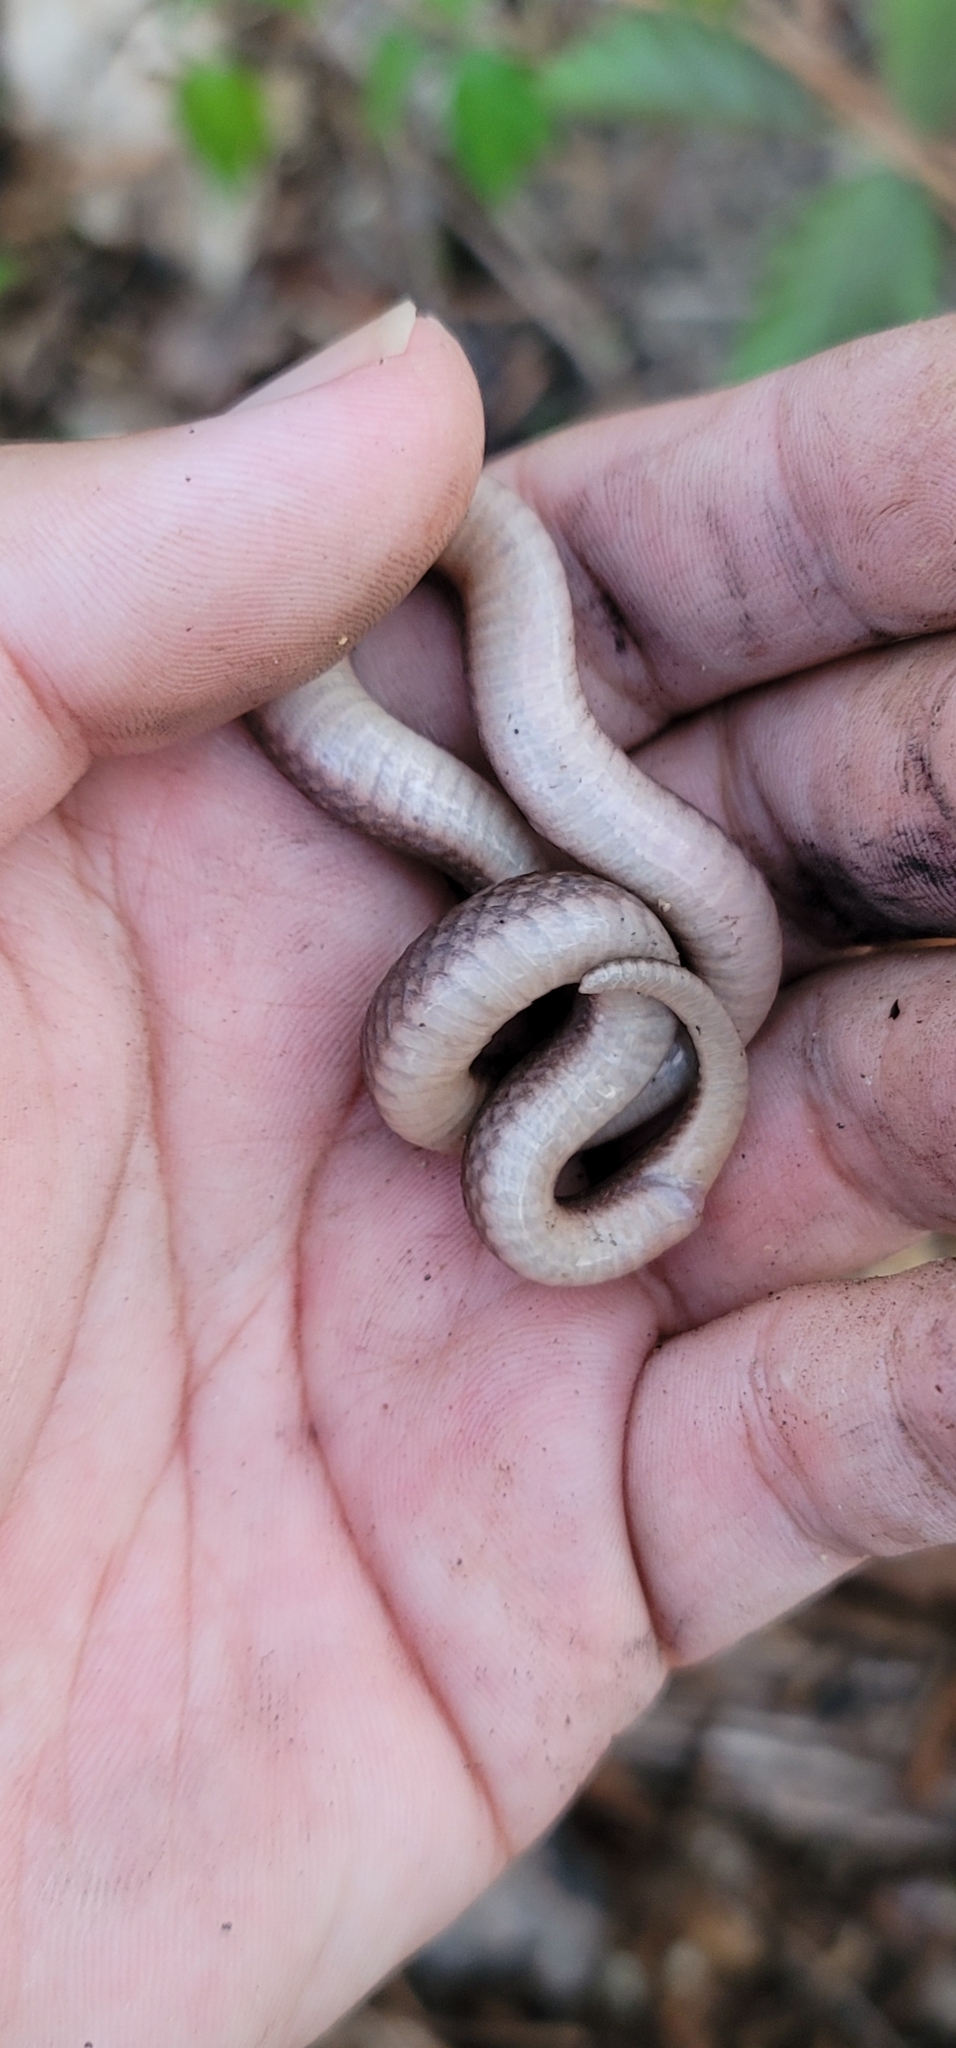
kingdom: Animalia
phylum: Chordata
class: Squamata
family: Colubridae
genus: Haldea
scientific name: Haldea striatula
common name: Rough earth snake
